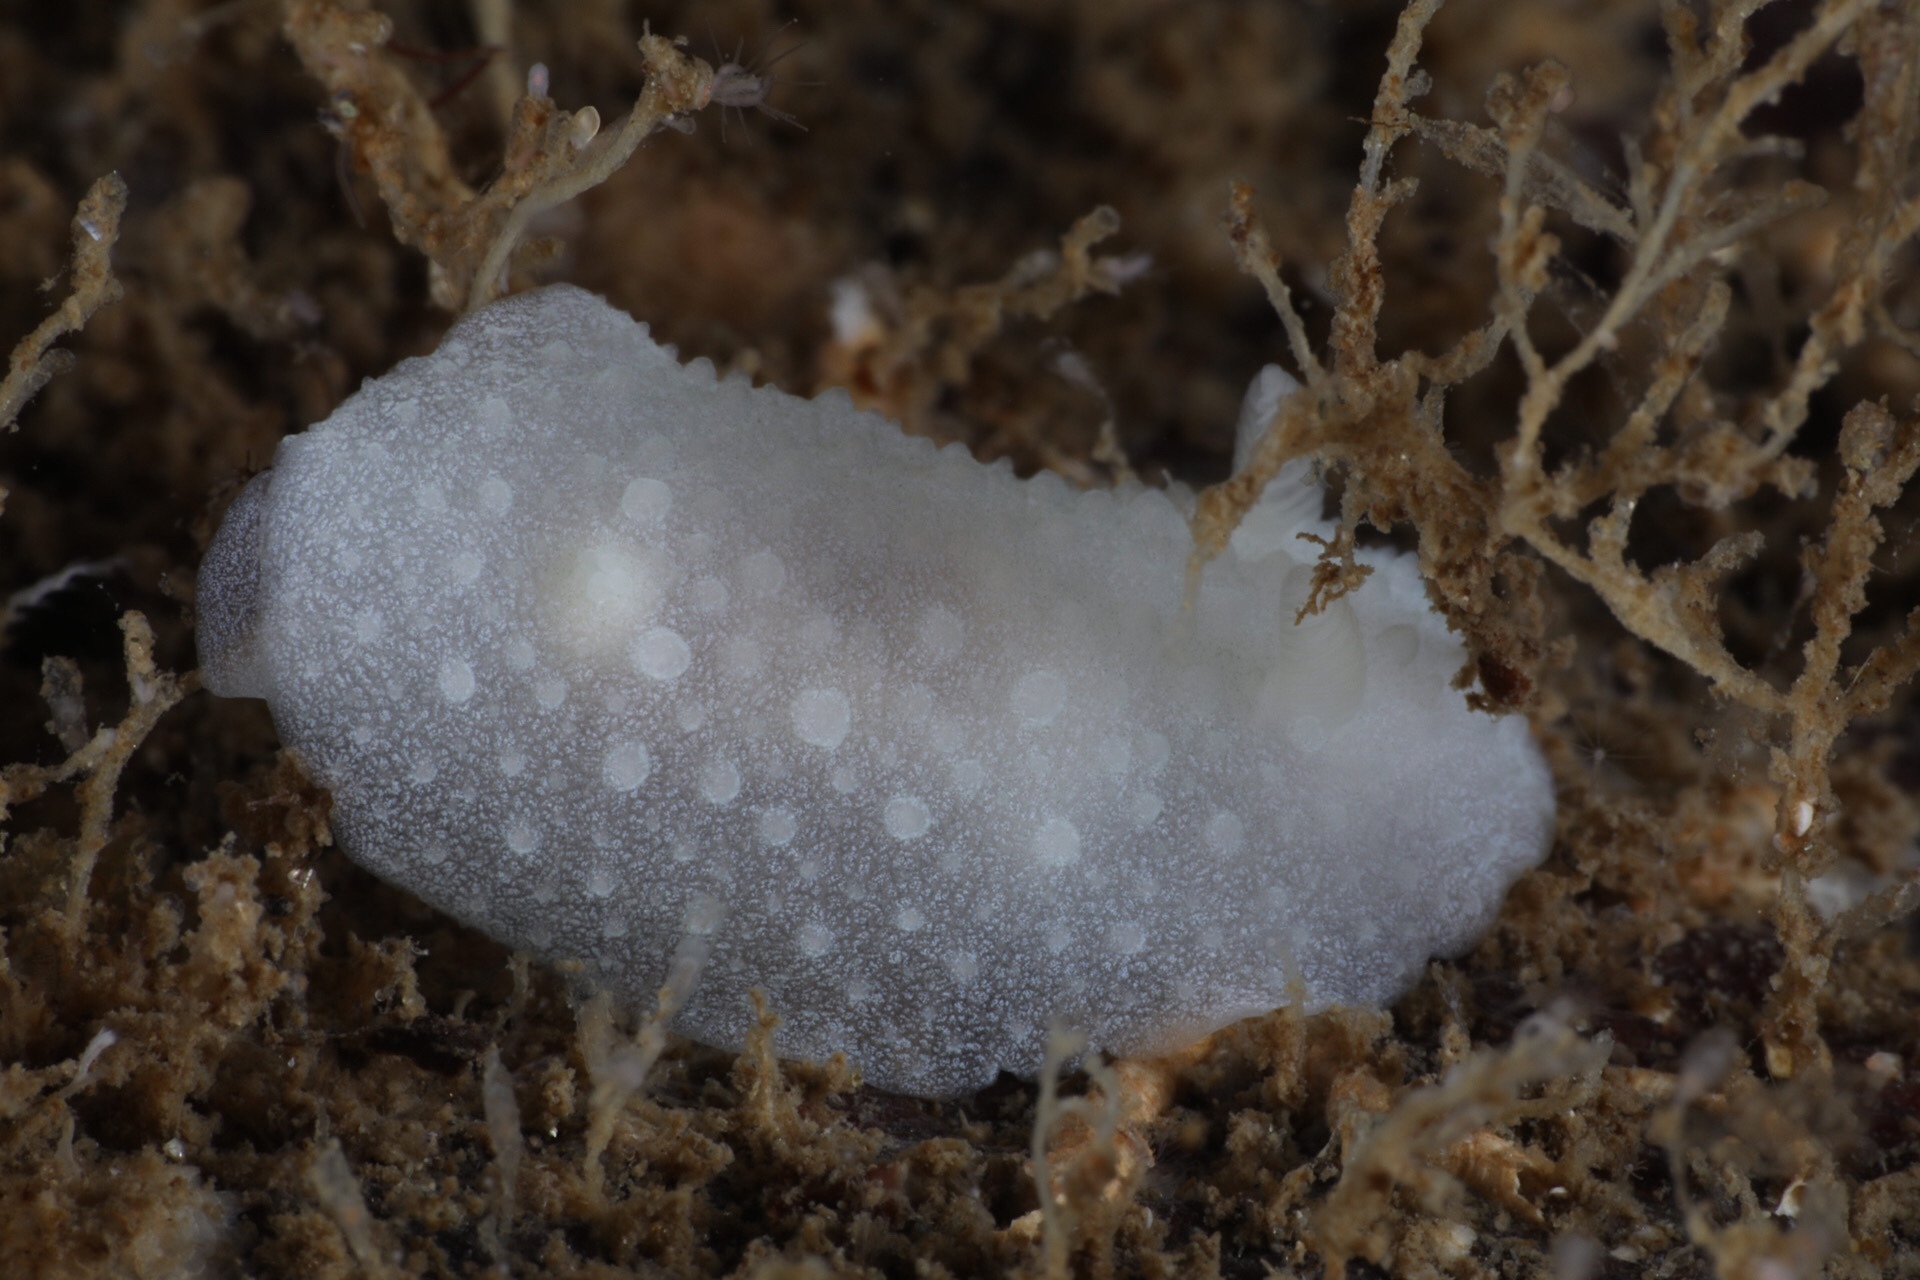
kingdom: Animalia
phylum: Mollusca
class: Gastropoda
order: Nudibranchia
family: Cadlinidae
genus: Aldisa
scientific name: Aldisa zetlandica
